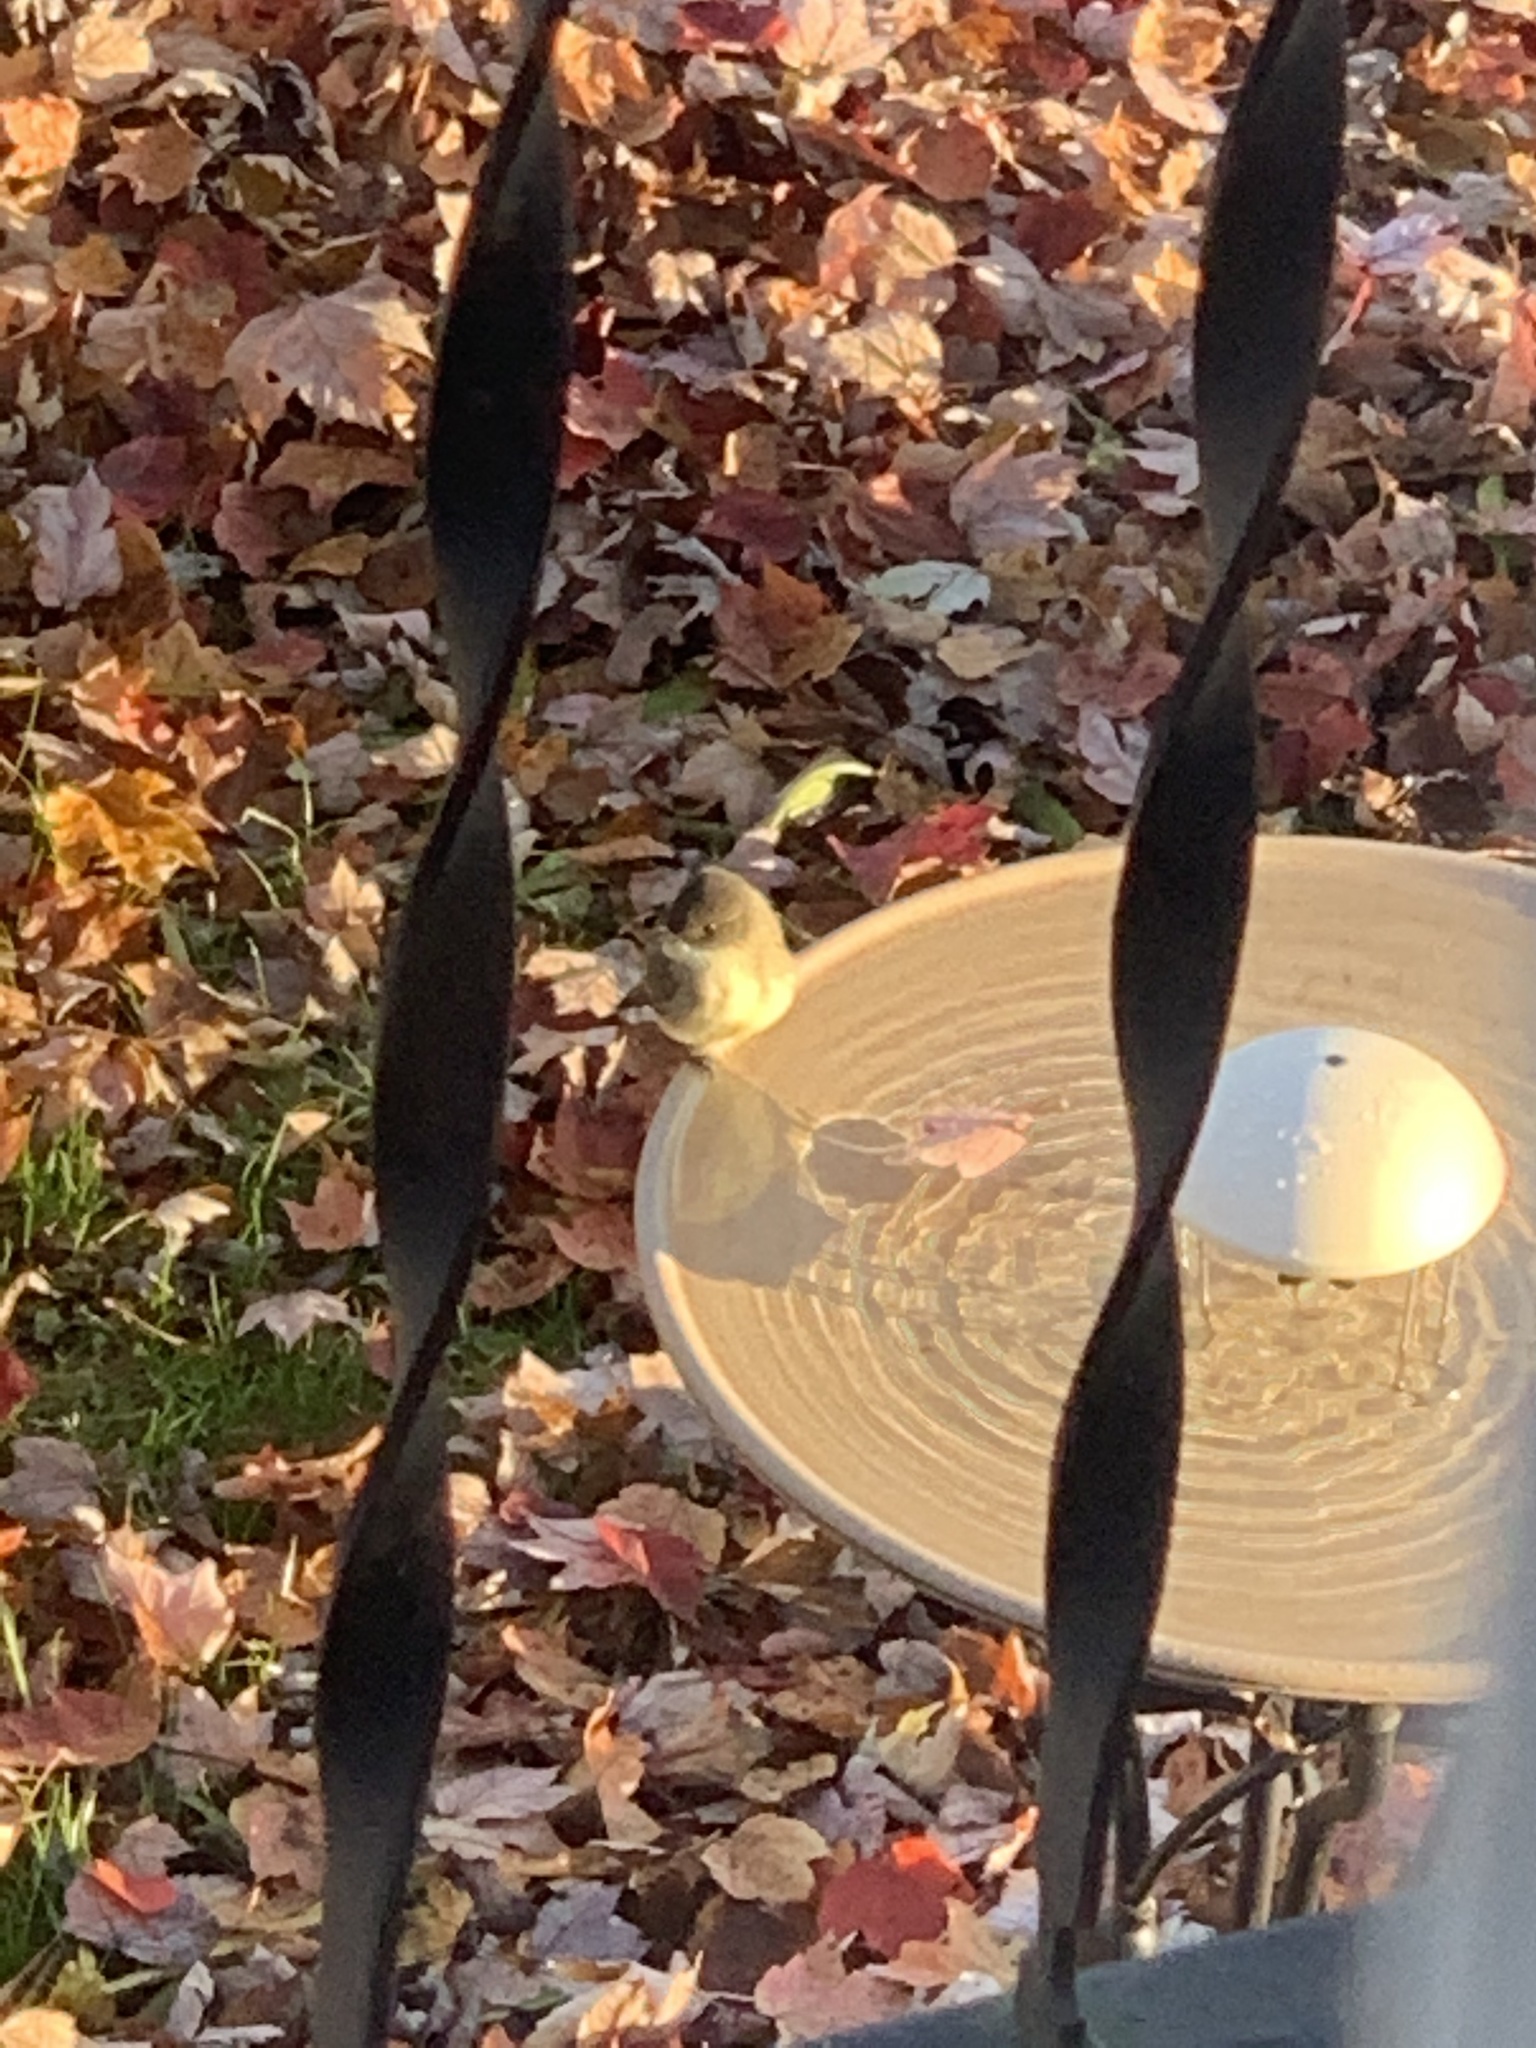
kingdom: Animalia
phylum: Chordata
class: Aves
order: Passeriformes
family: Tyrannidae
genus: Sayornis
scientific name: Sayornis phoebe
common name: Eastern phoebe
